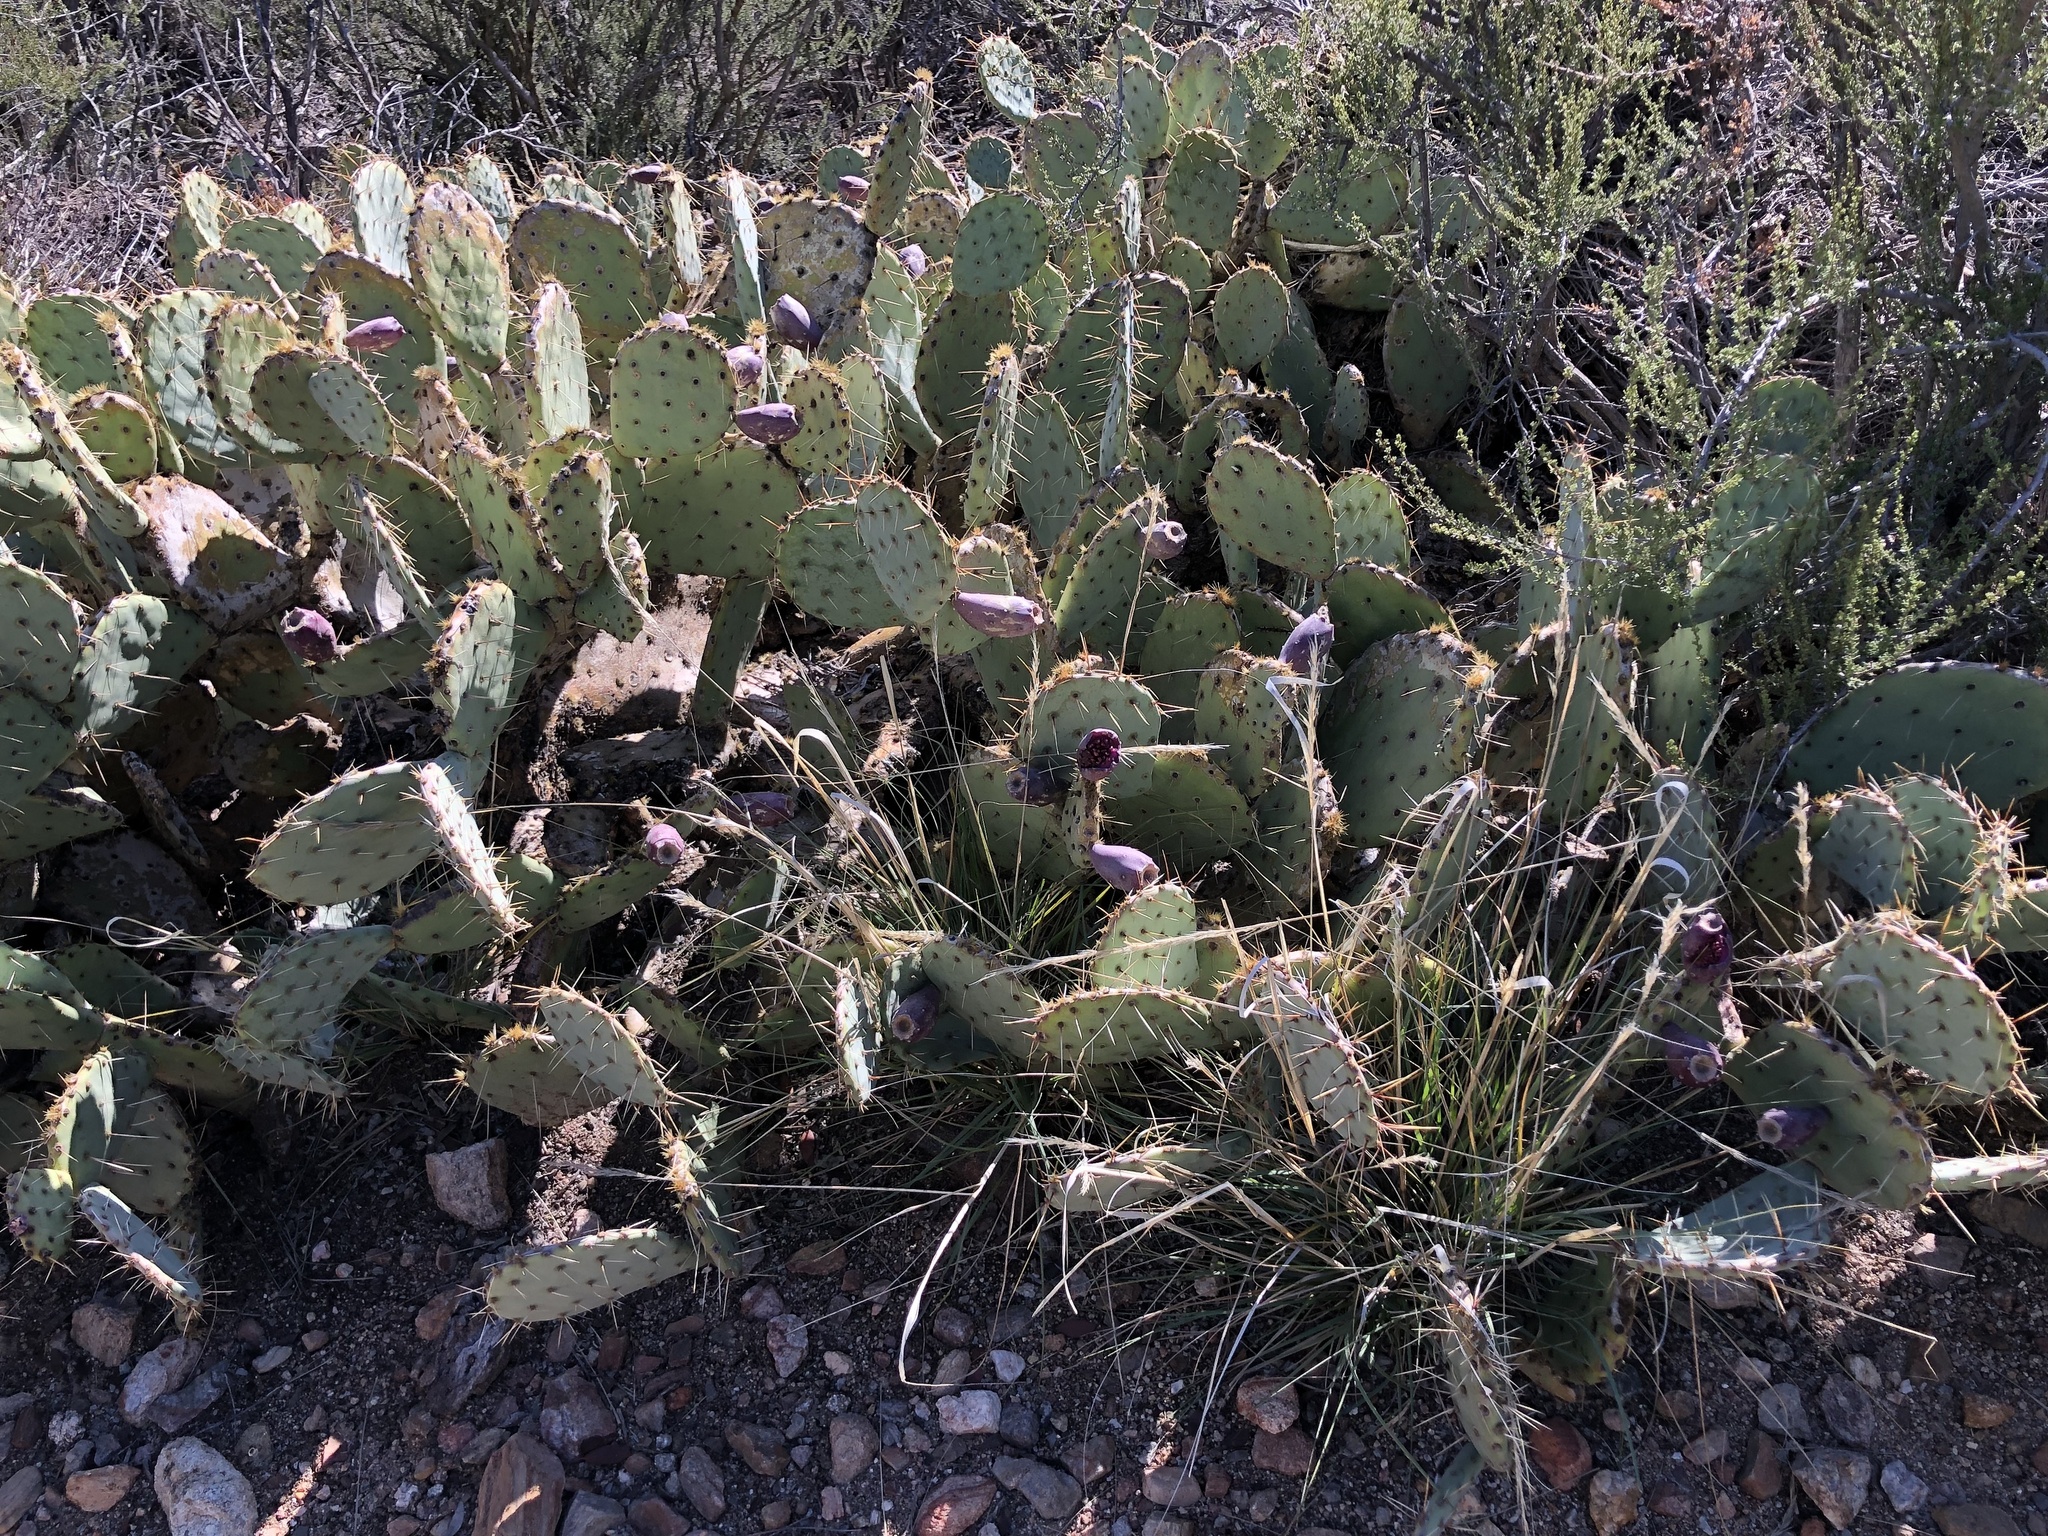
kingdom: Plantae
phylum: Tracheophyta
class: Magnoliopsida
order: Caryophyllales
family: Cactaceae
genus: Opuntia
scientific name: Opuntia phaeacantha
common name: New mexico prickly-pear
